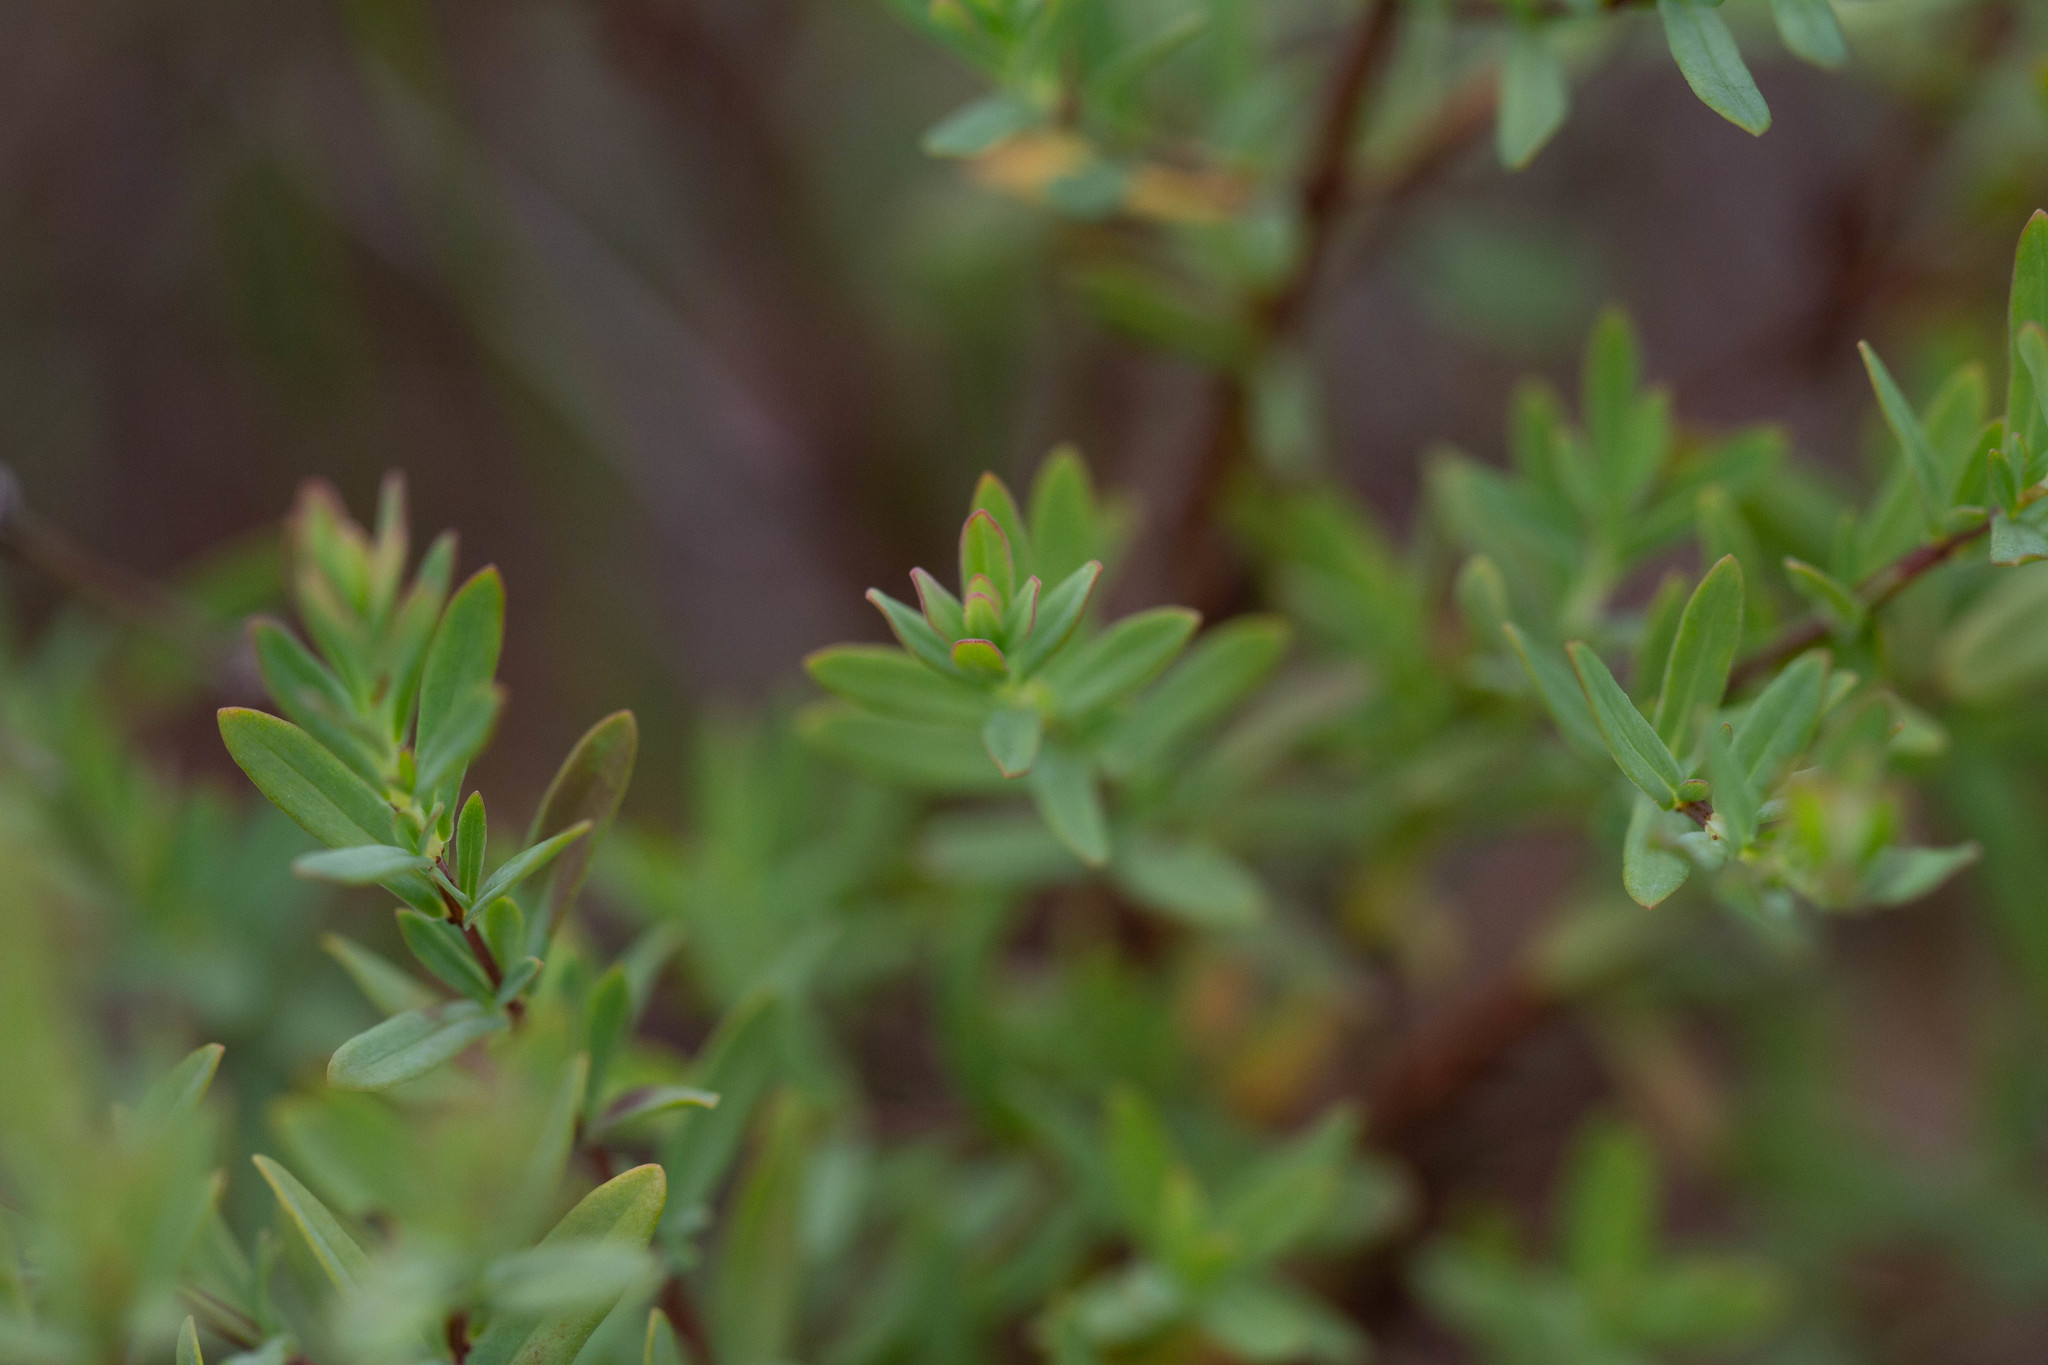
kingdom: Plantae
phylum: Tracheophyta
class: Magnoliopsida
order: Malpighiales
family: Hypericaceae
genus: Hypericum
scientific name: Hypericum hypericoides
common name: St. andrew's cross
